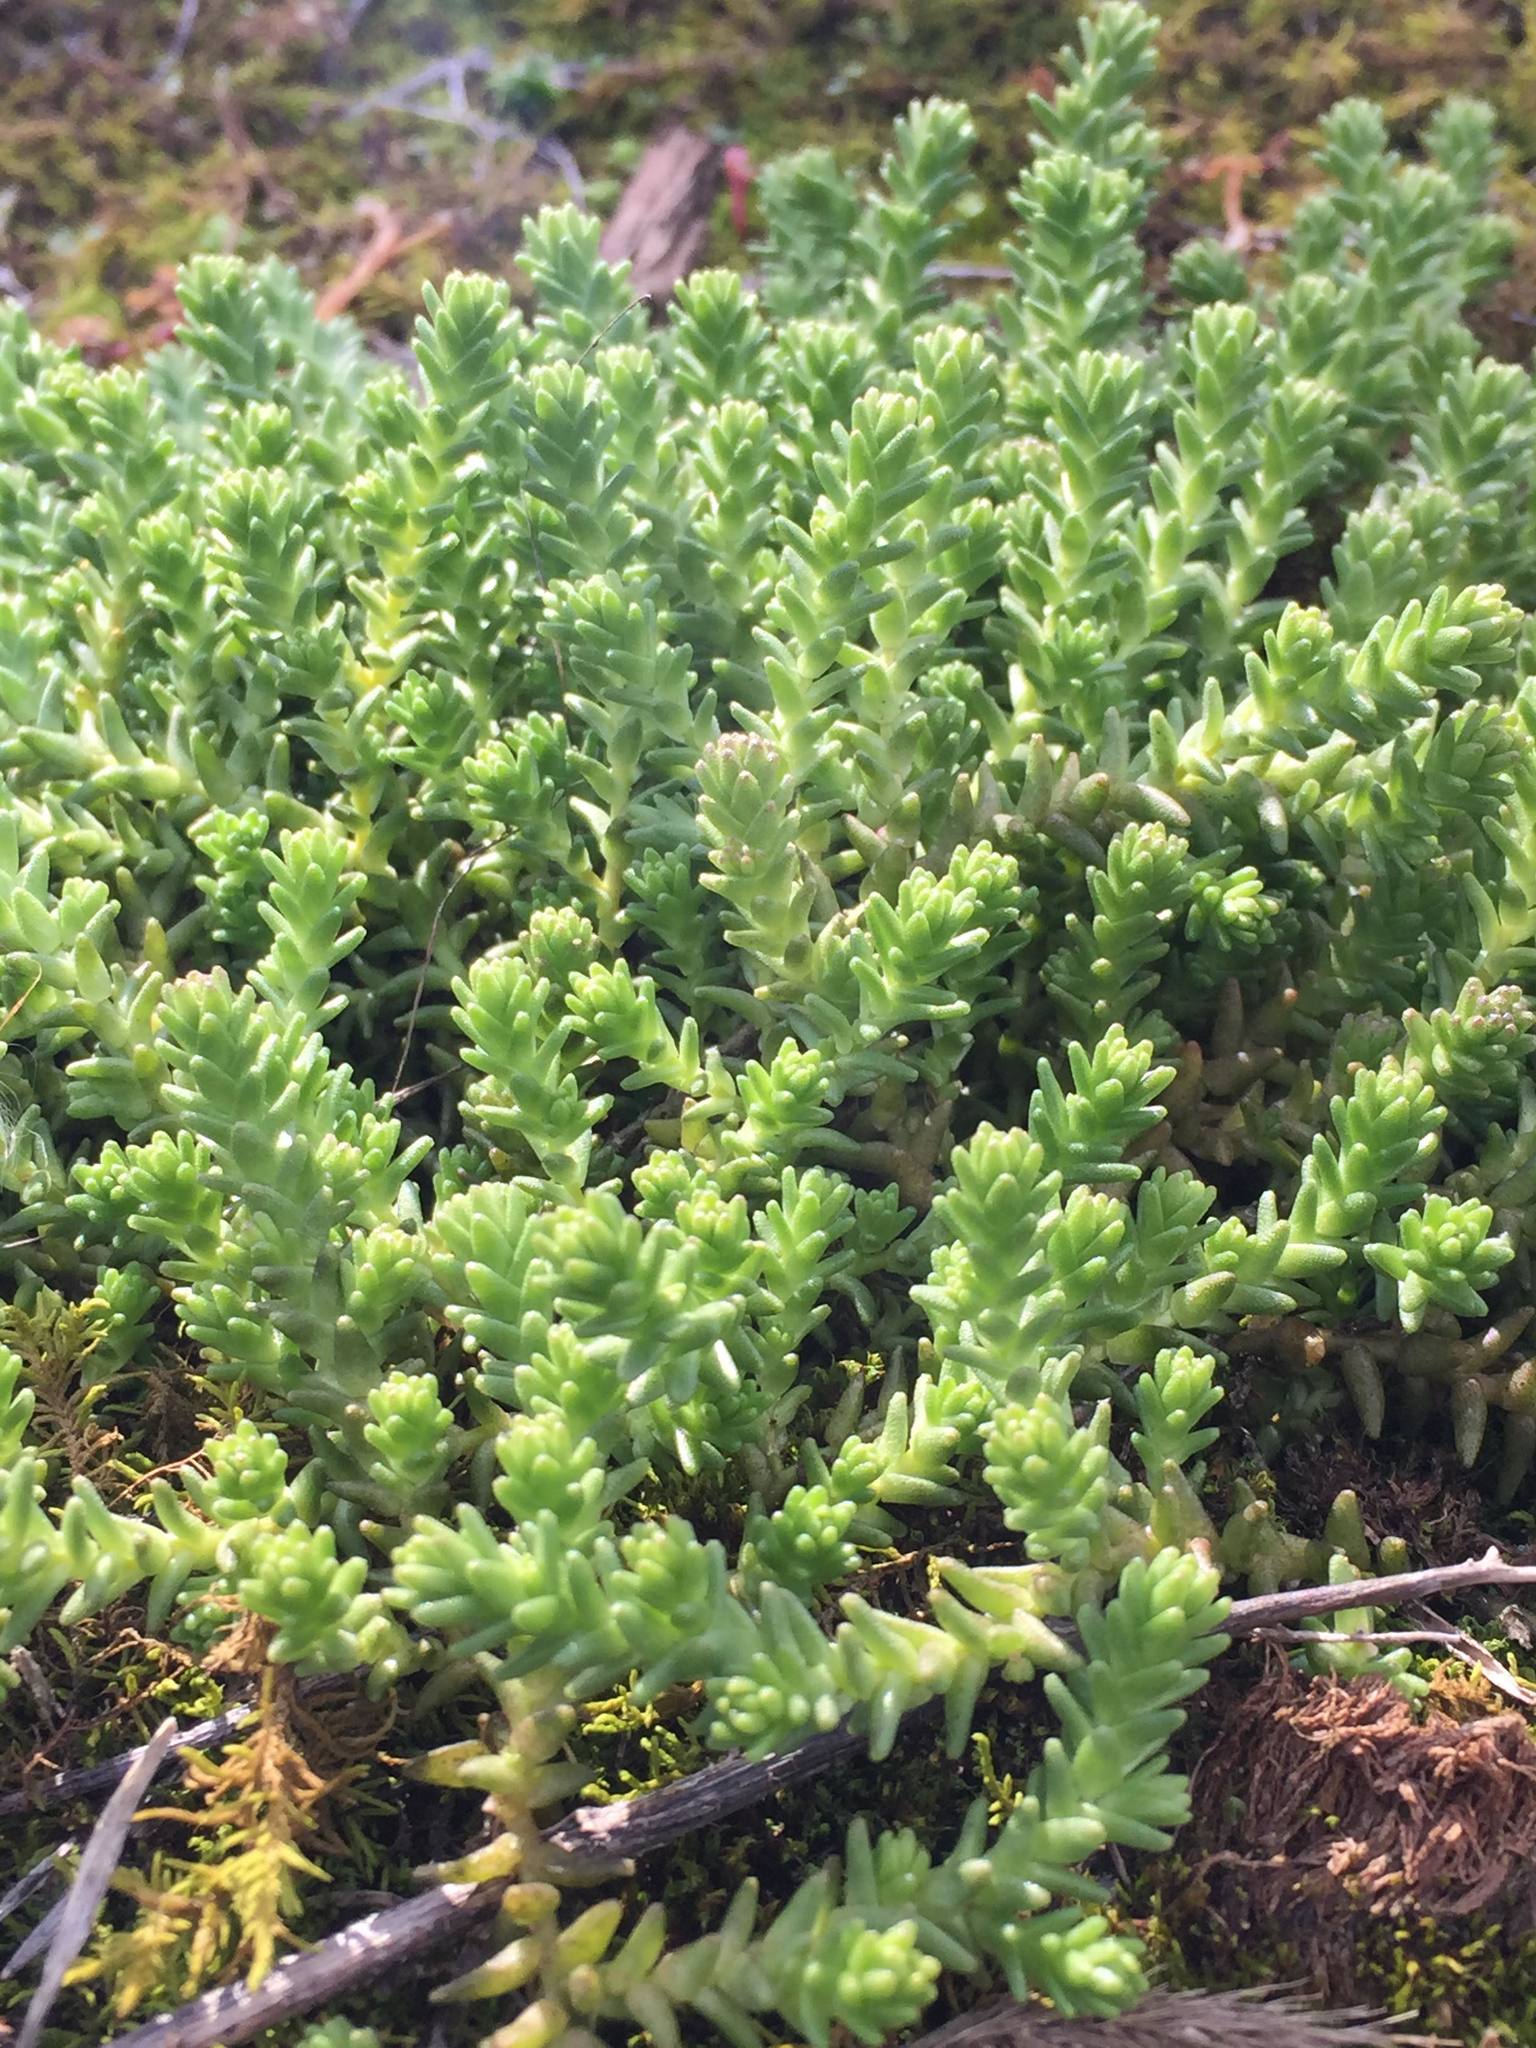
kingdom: Plantae
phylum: Tracheophyta
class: Magnoliopsida
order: Saxifragales
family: Crassulaceae
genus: Sedum
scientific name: Sedum acre
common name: Biting stonecrop
